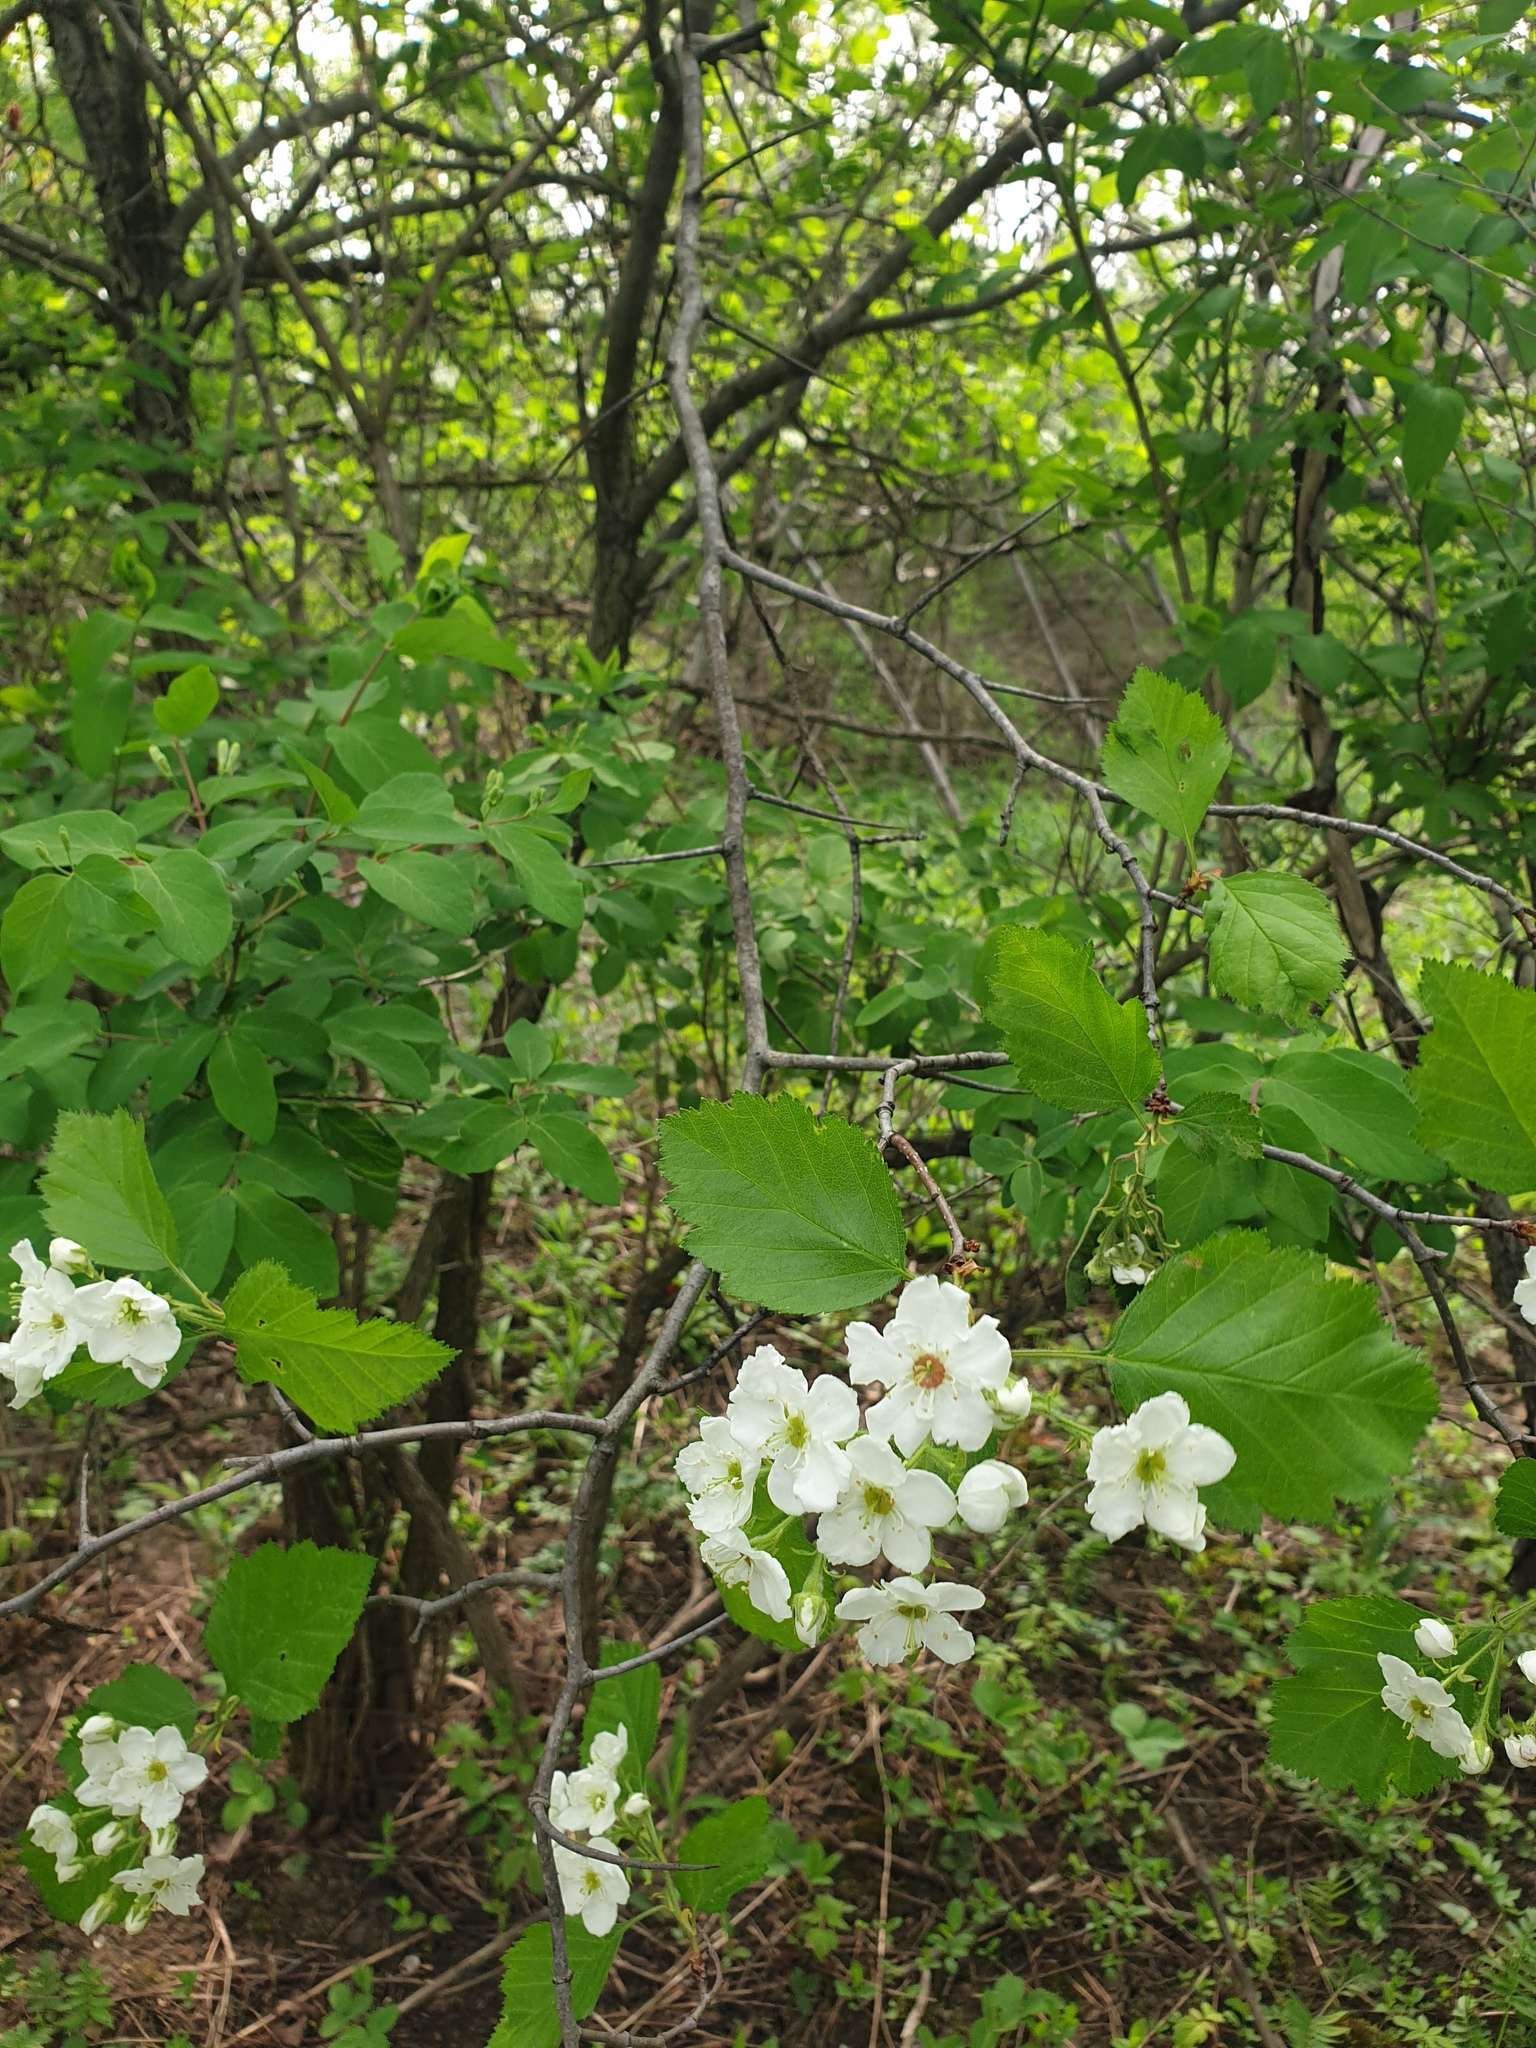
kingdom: Plantae
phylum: Tracheophyta
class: Magnoliopsida
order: Rosales
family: Rosaceae
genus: Crataegus
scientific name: Crataegus submollis
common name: Hairy cockspurthorn
